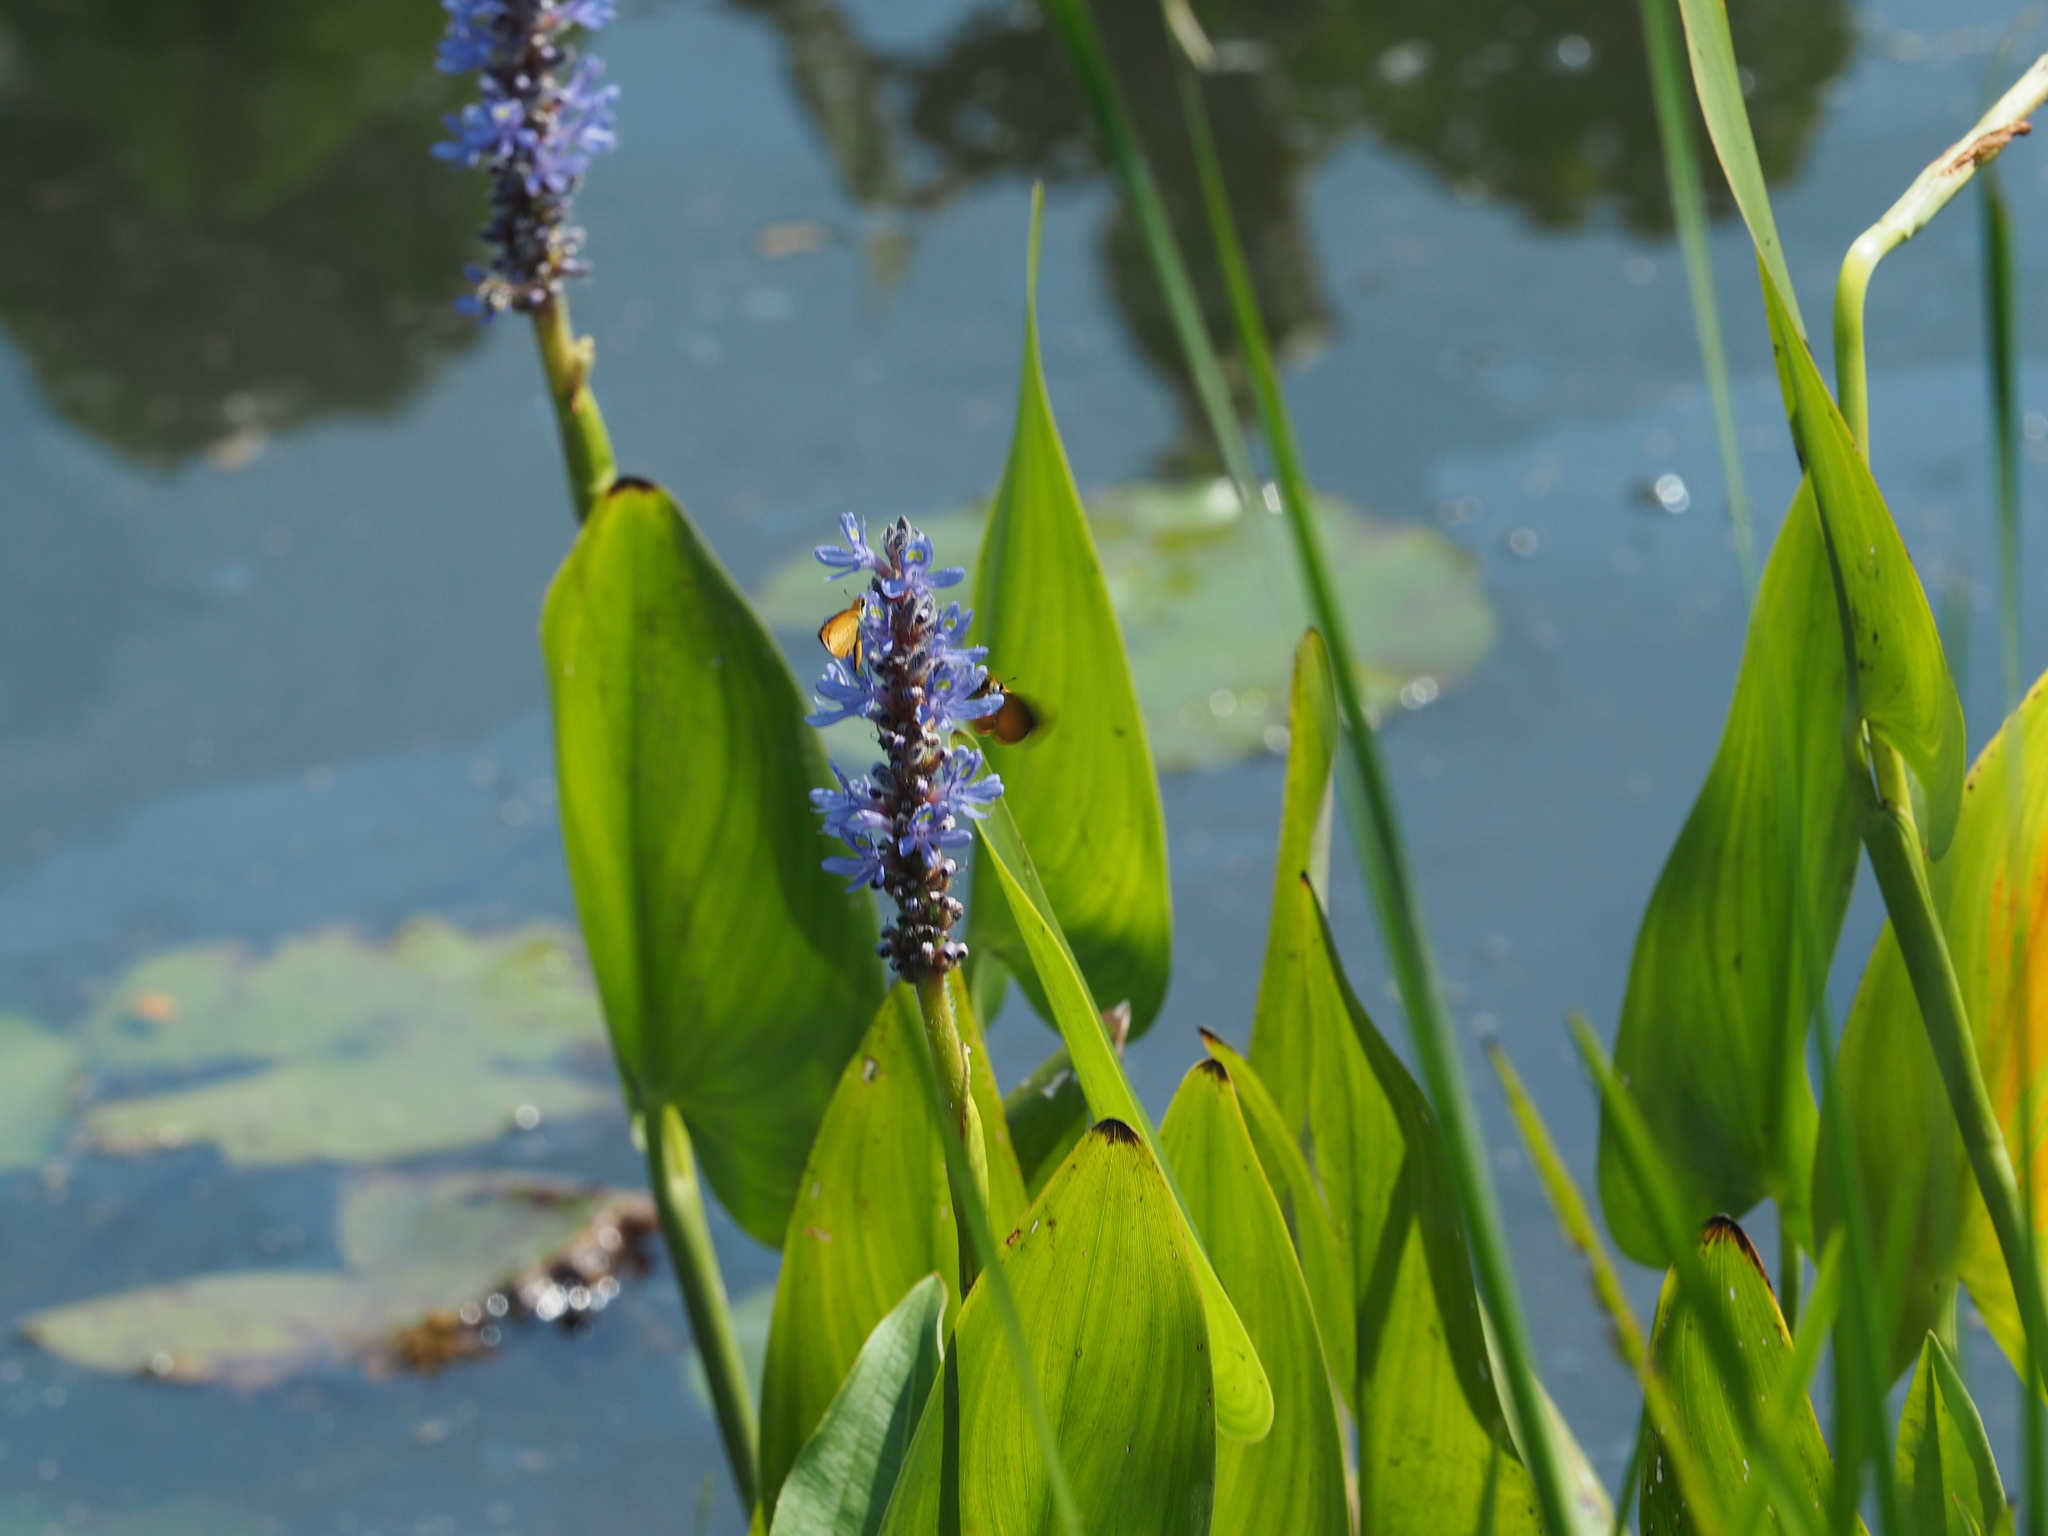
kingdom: Plantae
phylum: Tracheophyta
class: Liliopsida
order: Commelinales
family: Pontederiaceae
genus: Pontederia
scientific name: Pontederia cordata
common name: Pickerelweed
